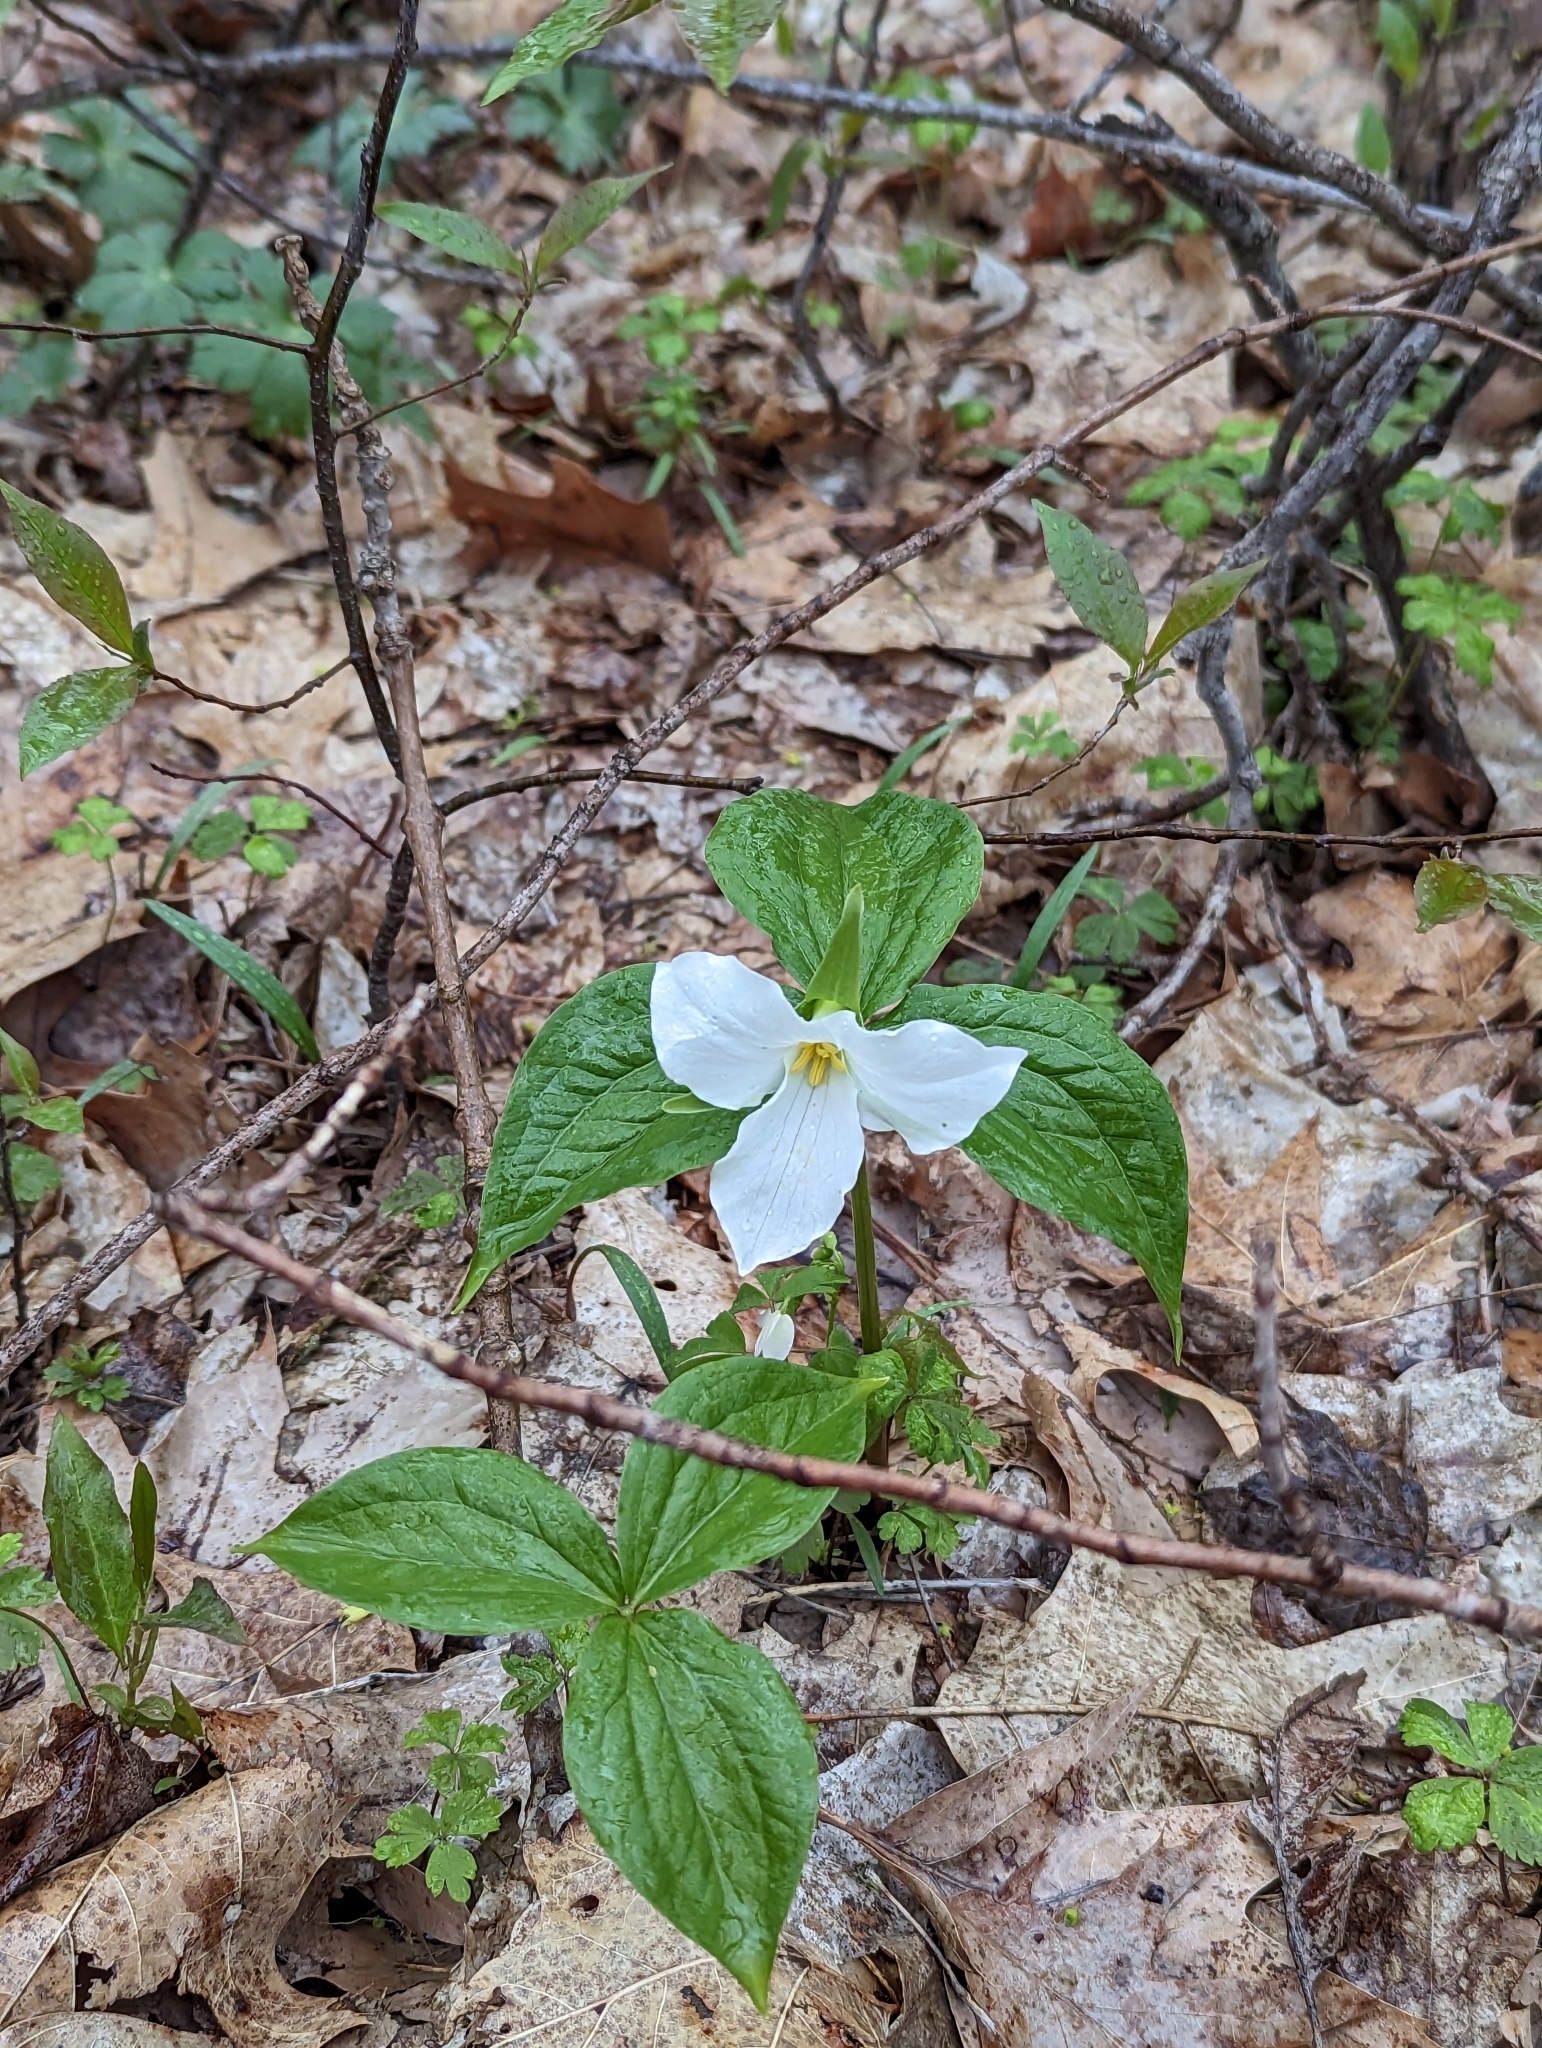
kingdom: Plantae
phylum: Tracheophyta
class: Liliopsida
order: Liliales
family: Melanthiaceae
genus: Trillium
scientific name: Trillium grandiflorum
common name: Great white trillium
